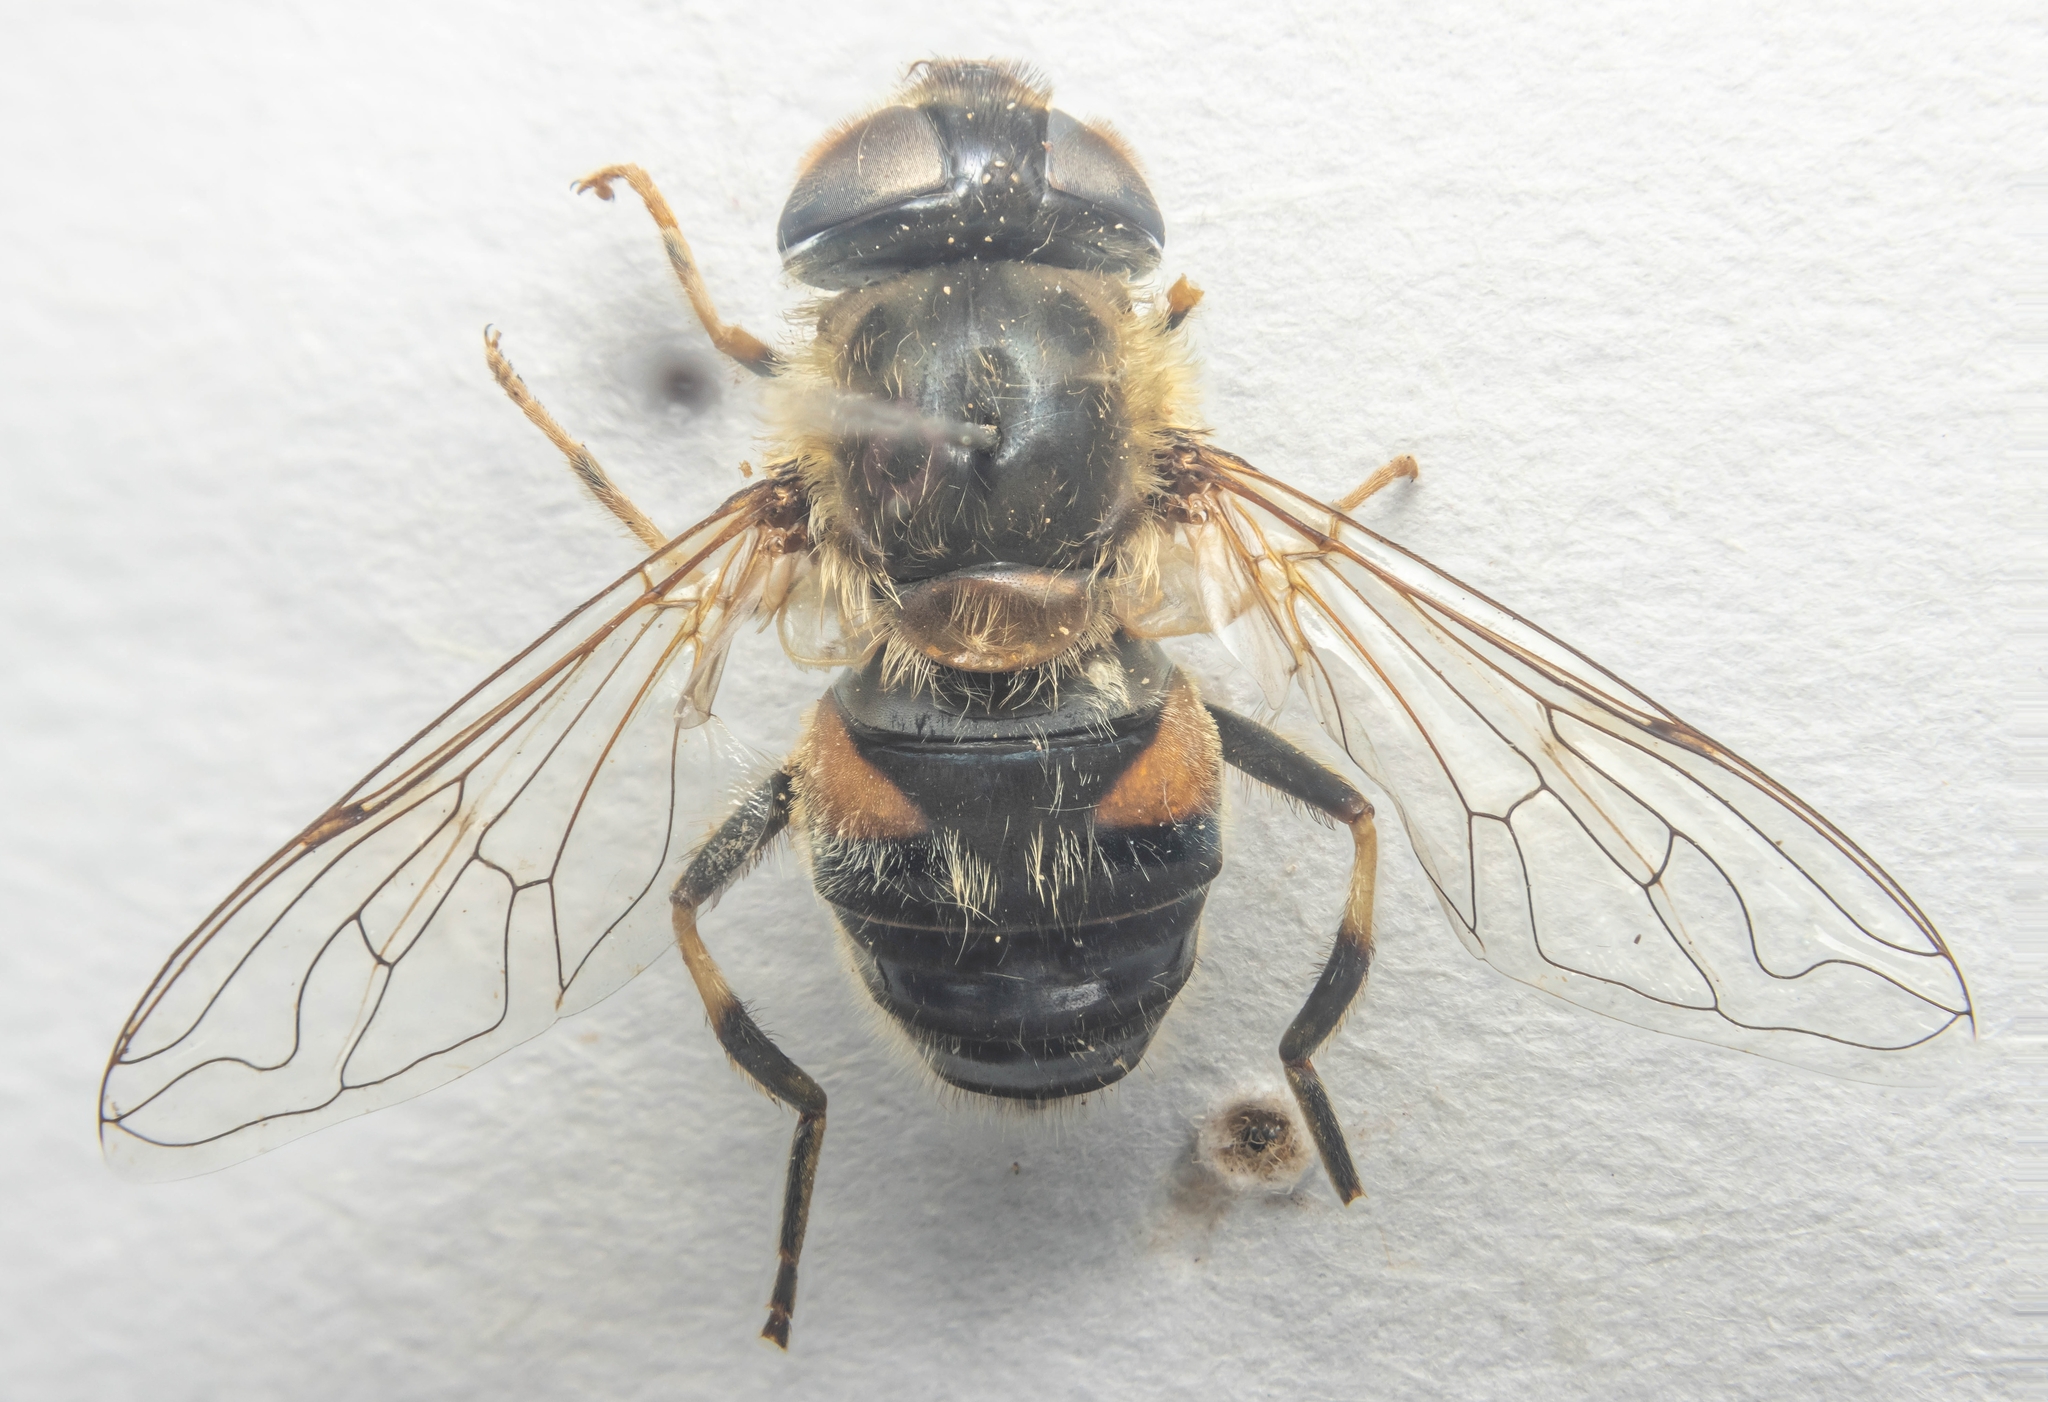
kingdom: Animalia
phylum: Arthropoda
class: Insecta
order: Diptera
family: Syrphidae
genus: Eristalis
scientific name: Eristalis pertinax
